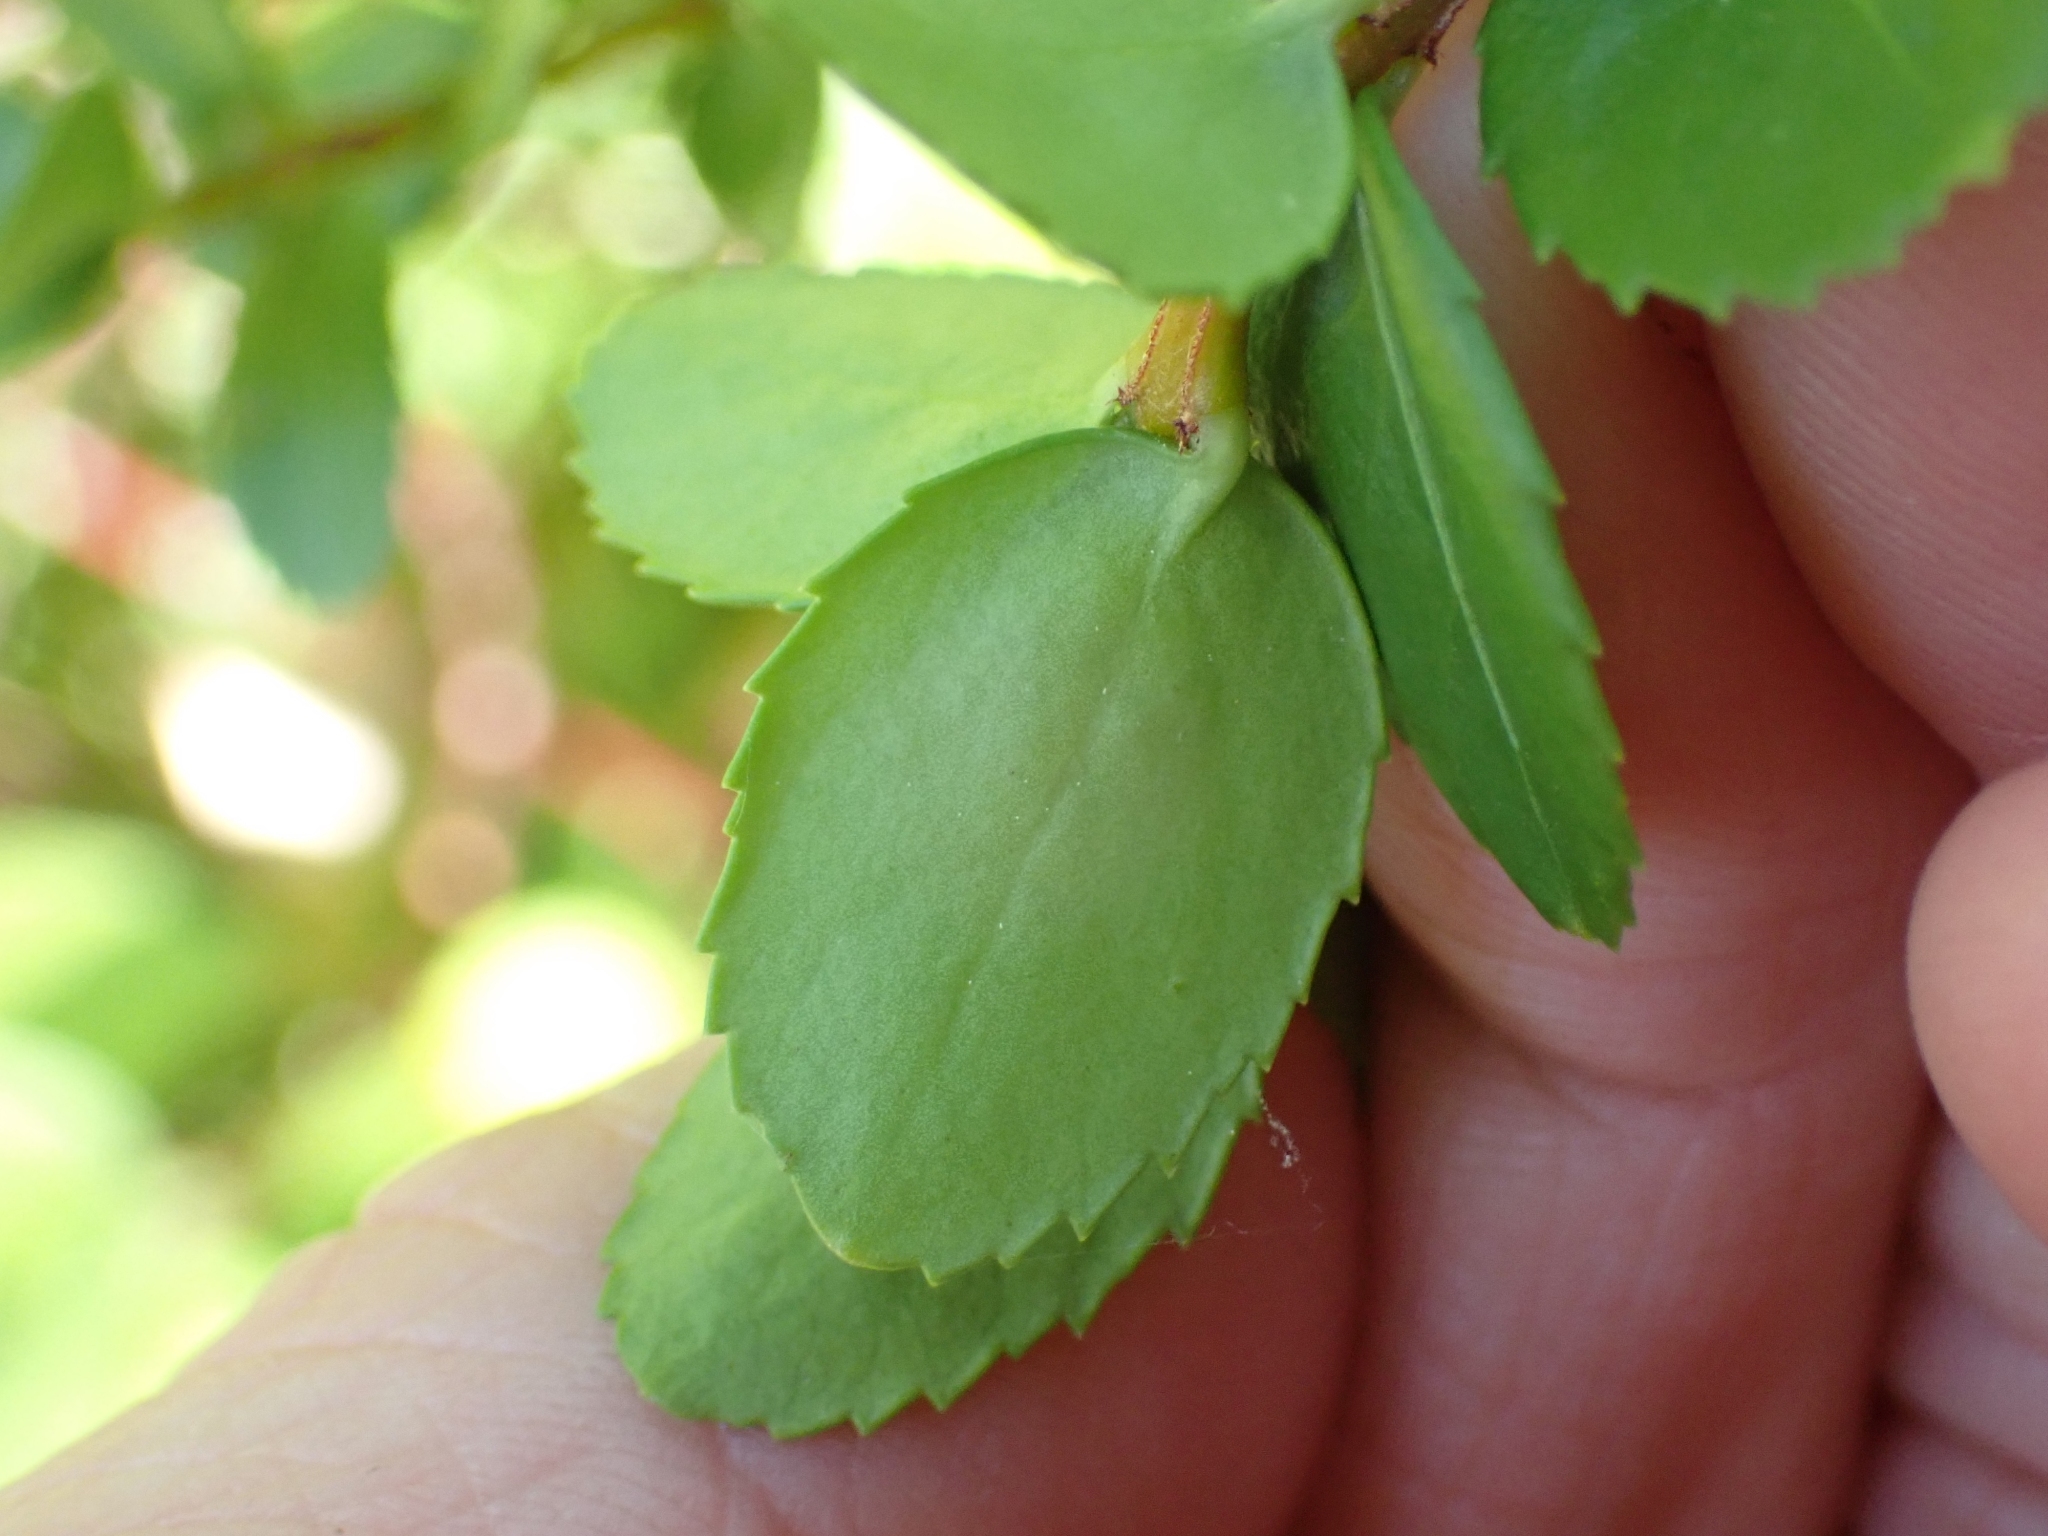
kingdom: Plantae
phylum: Tracheophyta
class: Magnoliopsida
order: Celastrales
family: Celastraceae
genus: Paxistima
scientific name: Paxistima myrsinites
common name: Mountain-lover
